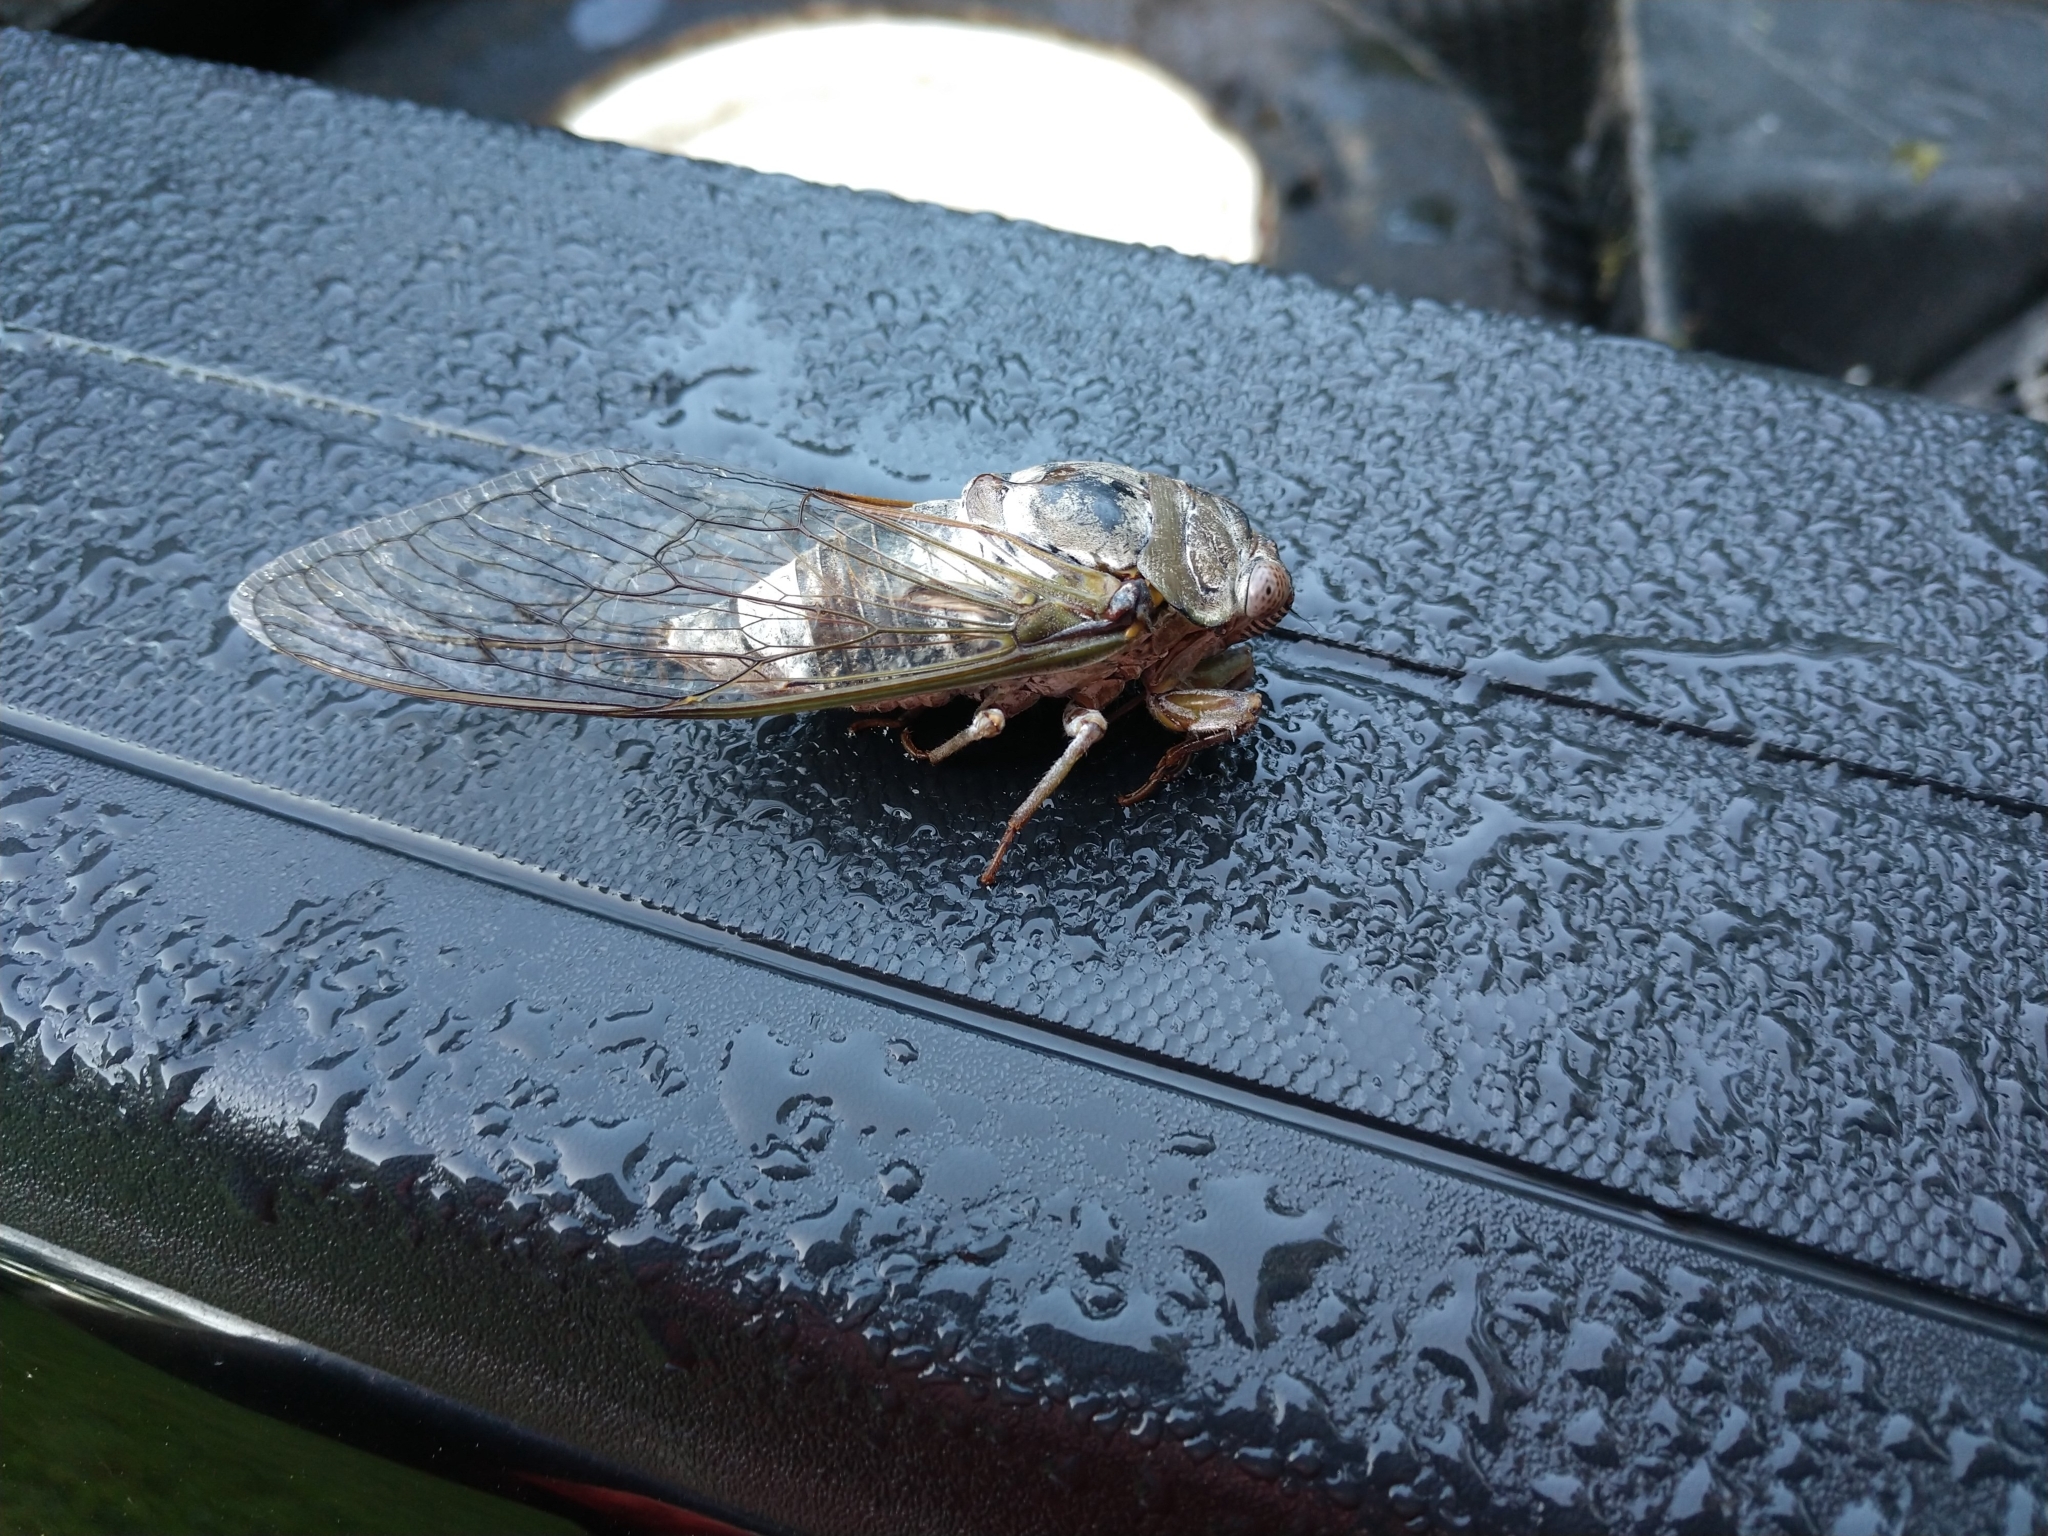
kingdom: Animalia
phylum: Arthropoda
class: Insecta
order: Hemiptera
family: Cicadidae
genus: Diceroprocta
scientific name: Diceroprocta grossa
